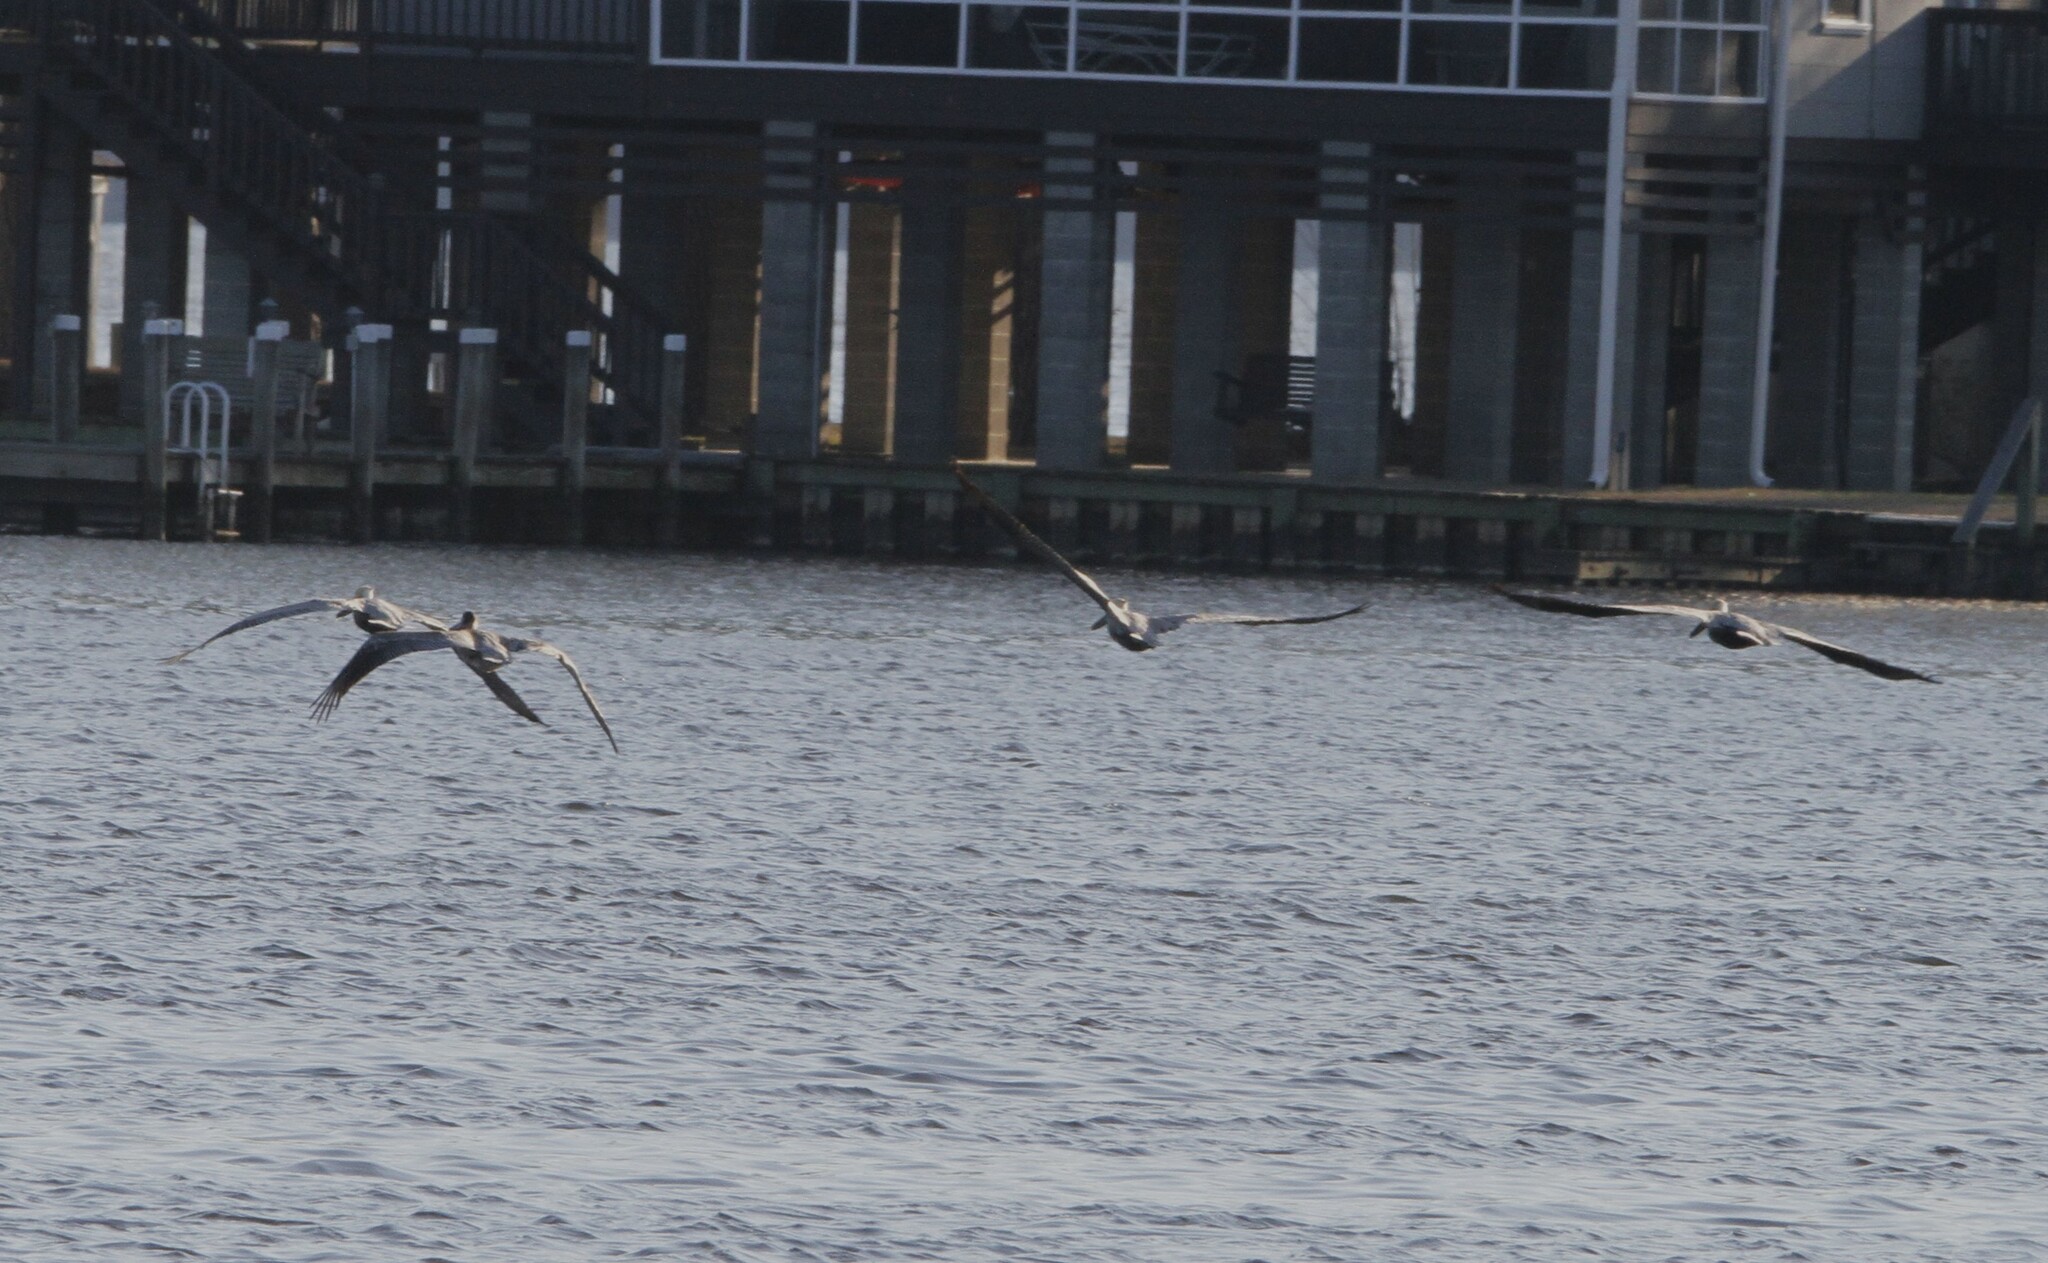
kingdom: Animalia
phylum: Chordata
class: Aves
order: Pelecaniformes
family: Pelecanidae
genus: Pelecanus
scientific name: Pelecanus occidentalis
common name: Brown pelican
